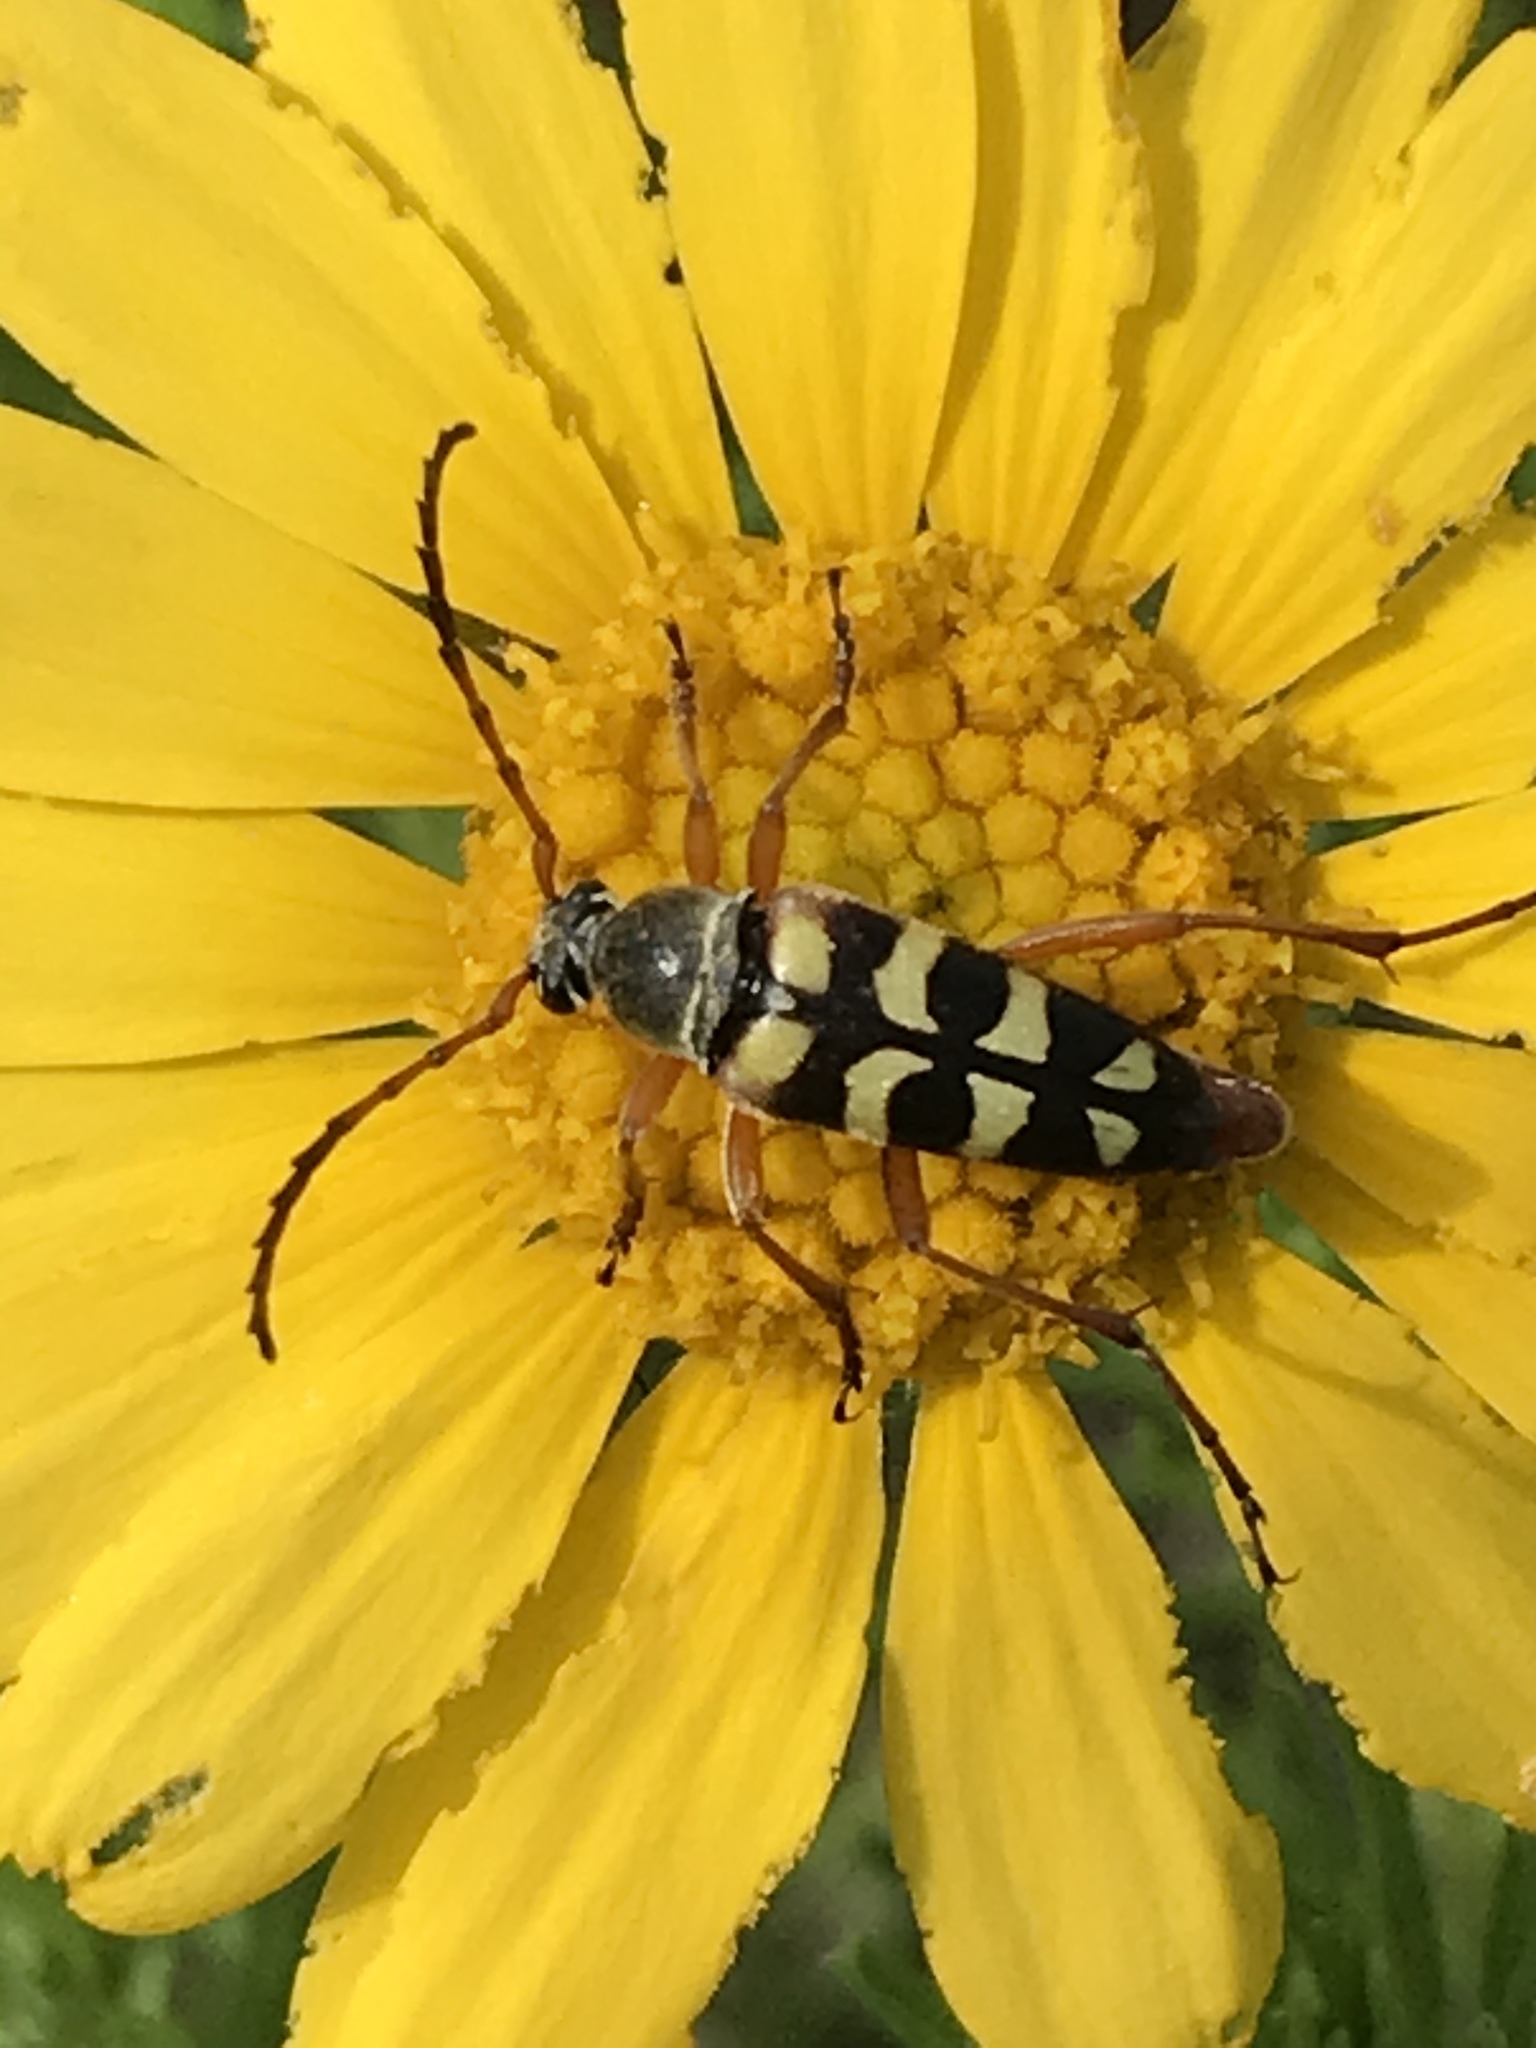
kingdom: Animalia
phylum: Arthropoda
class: Insecta
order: Coleoptera
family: Cerambycidae
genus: Typocerus
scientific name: Typocerus sinuatus
